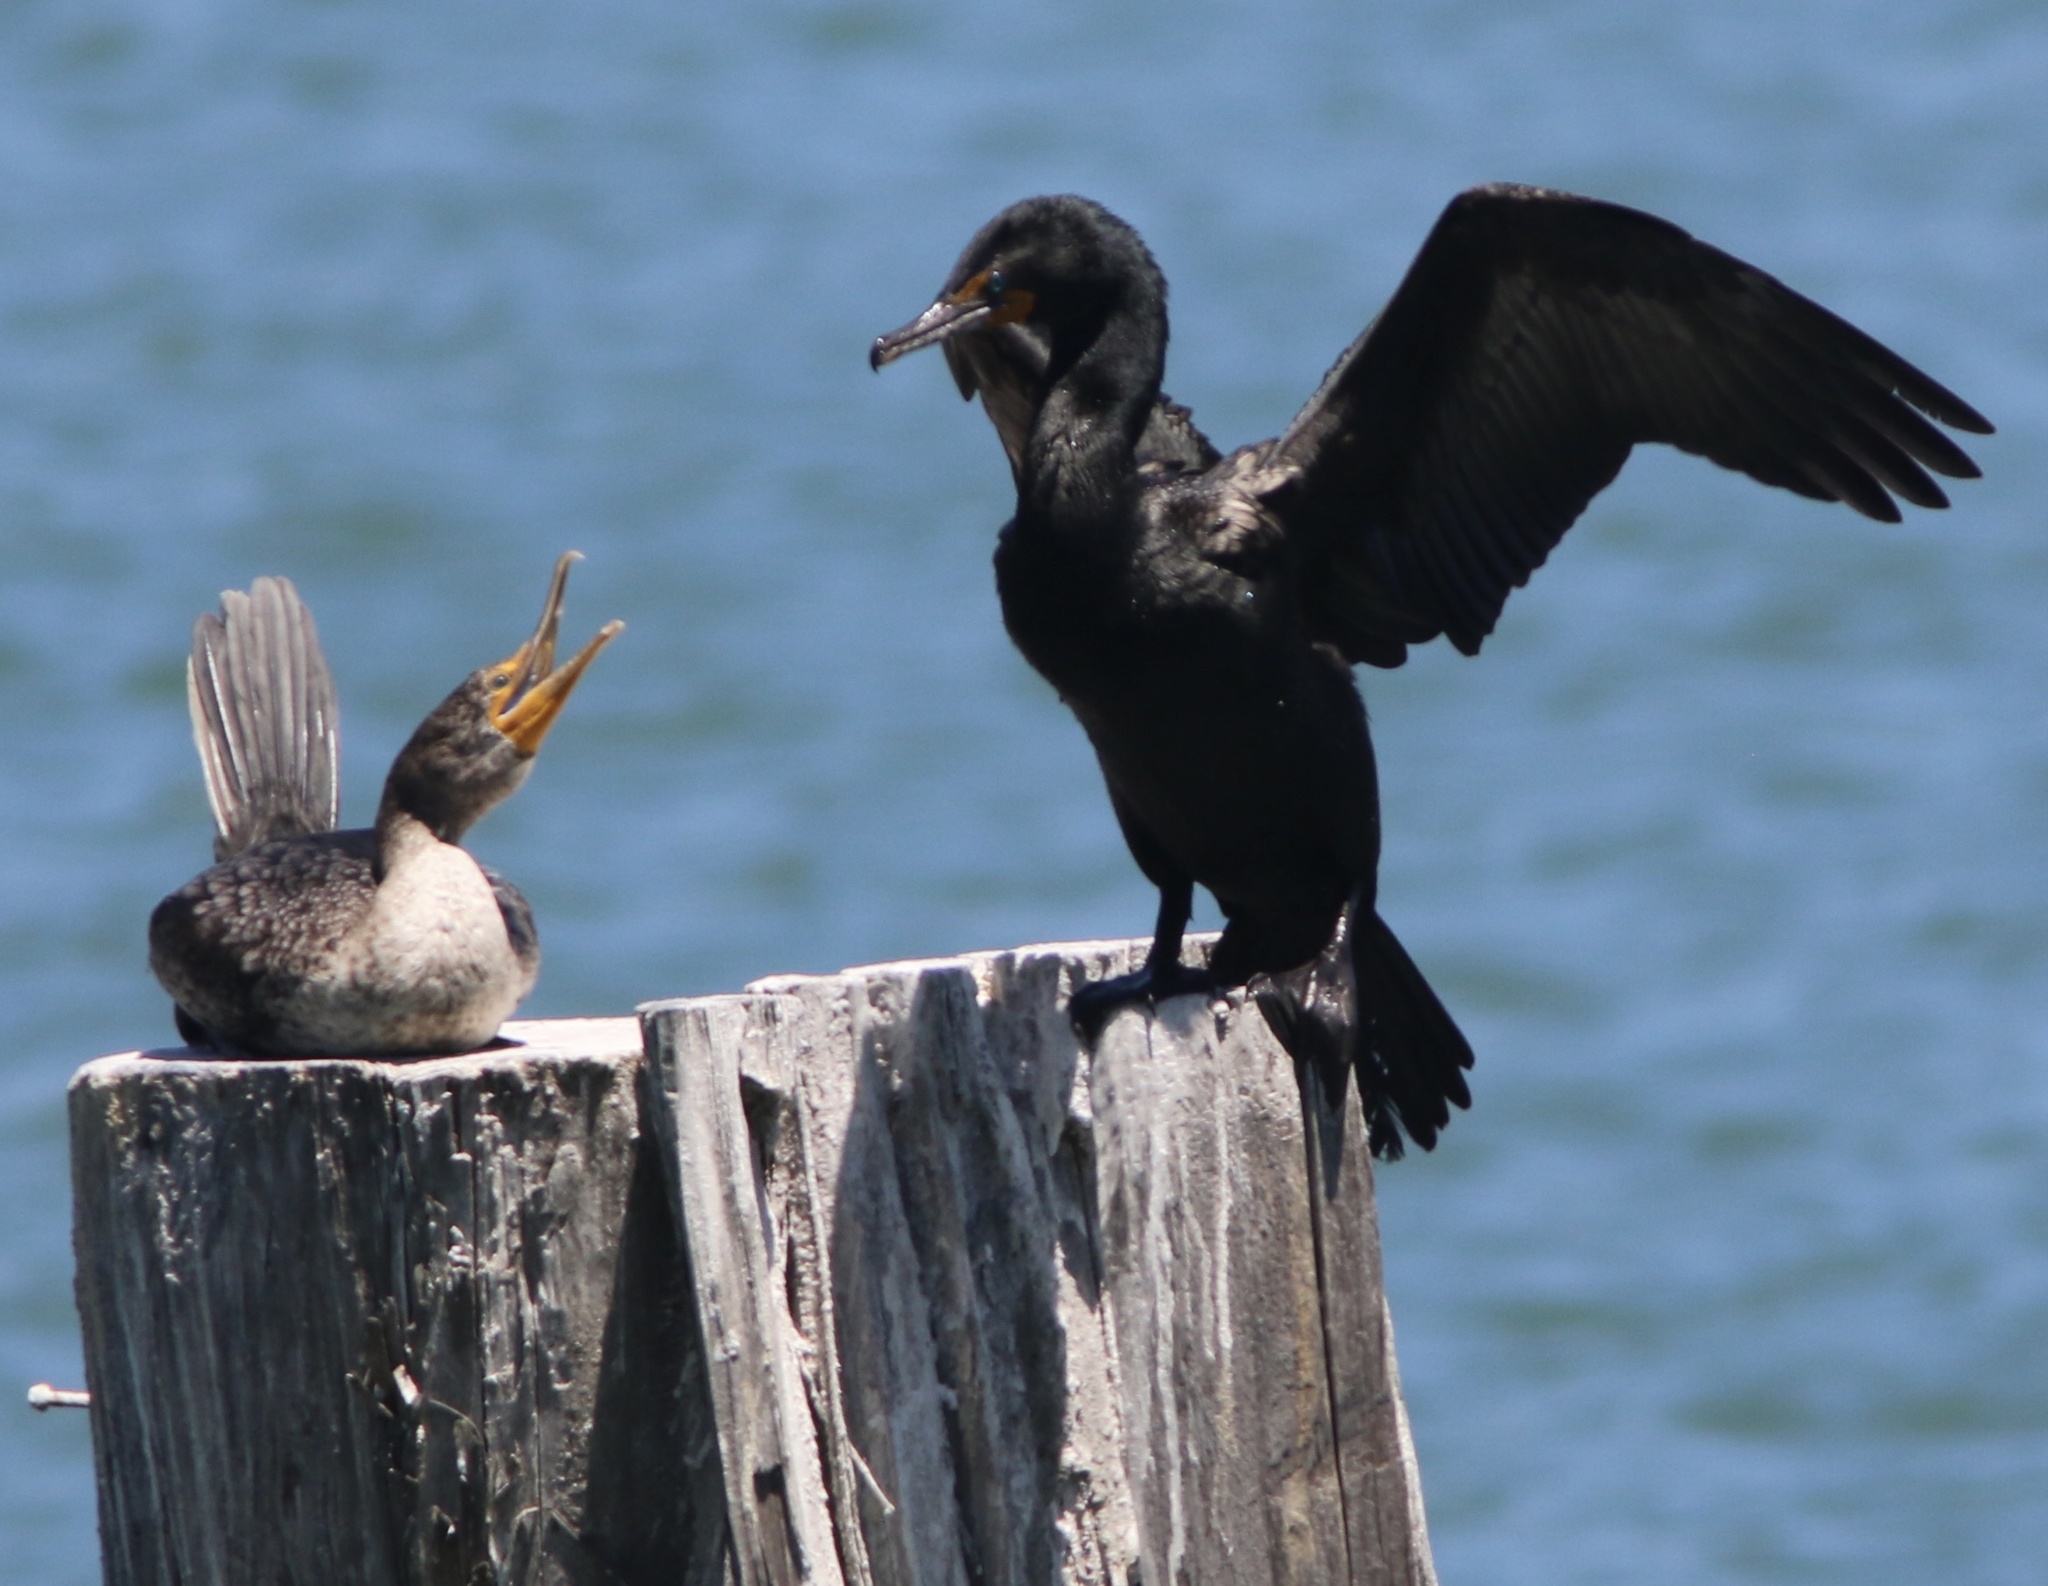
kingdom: Animalia
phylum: Chordata
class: Aves
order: Suliformes
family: Phalacrocoracidae
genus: Phalacrocorax
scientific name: Phalacrocorax auritus
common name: Double-crested cormorant
